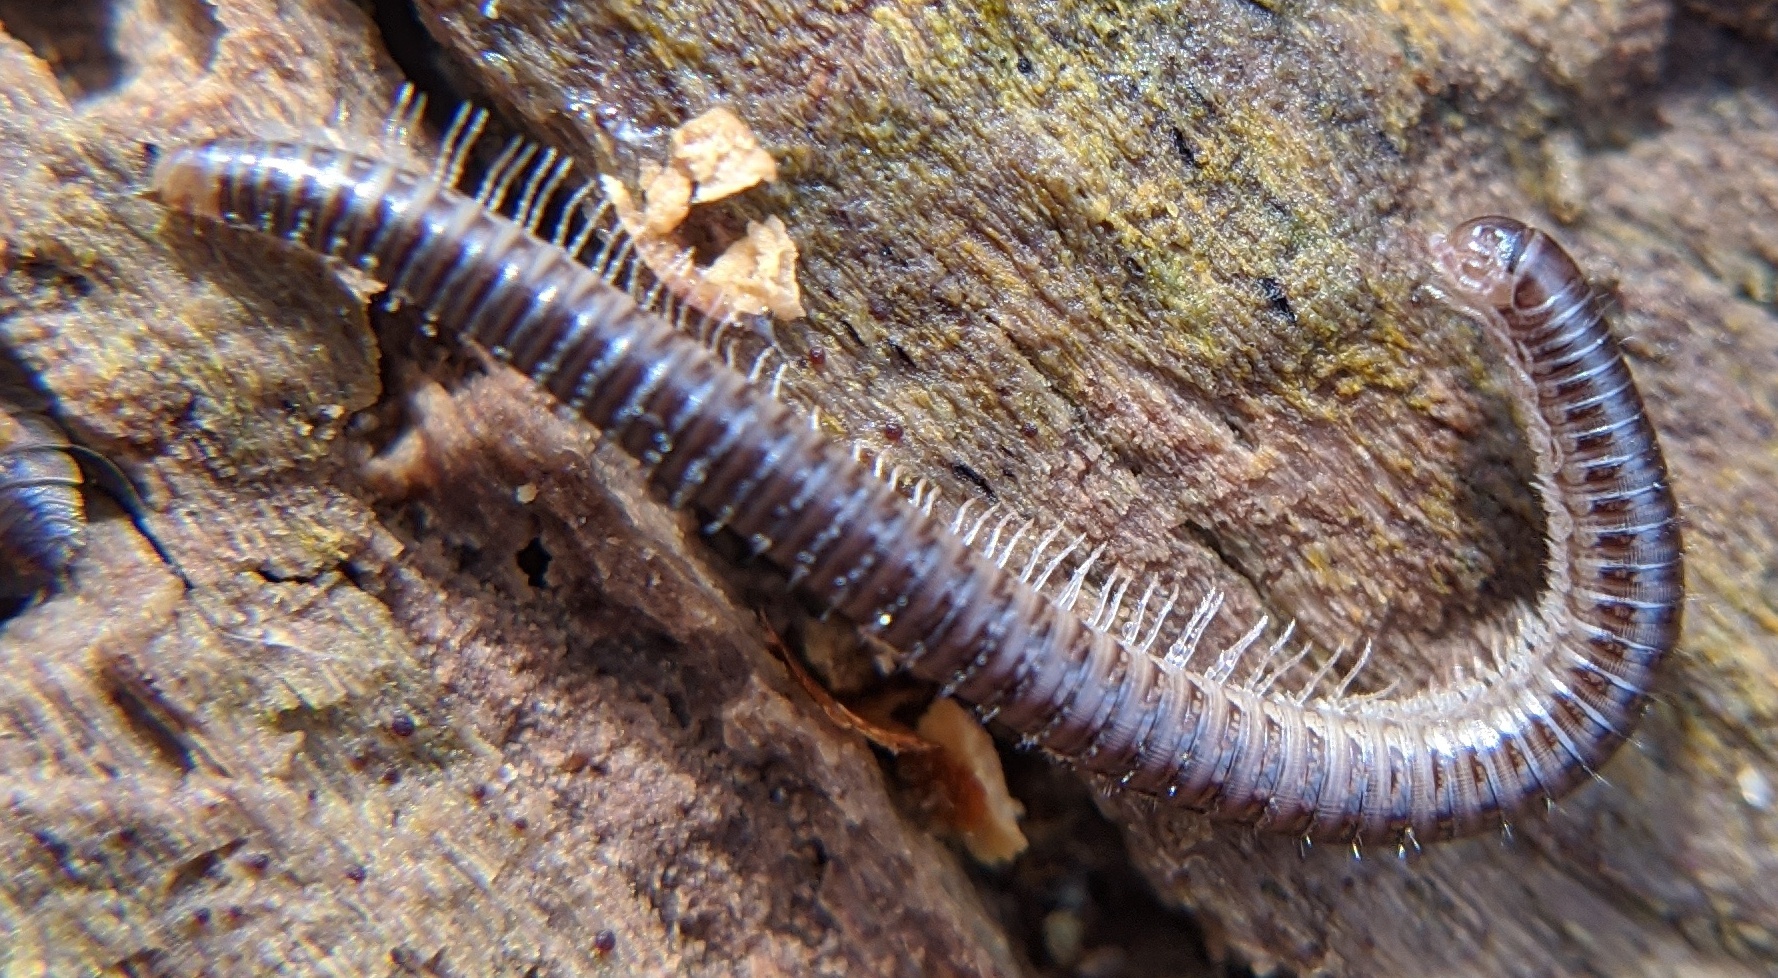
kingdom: Animalia
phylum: Arthropoda
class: Diplopoda
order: Julida
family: Julidae
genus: Ophyiulus
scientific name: Ophyiulus pilosus
